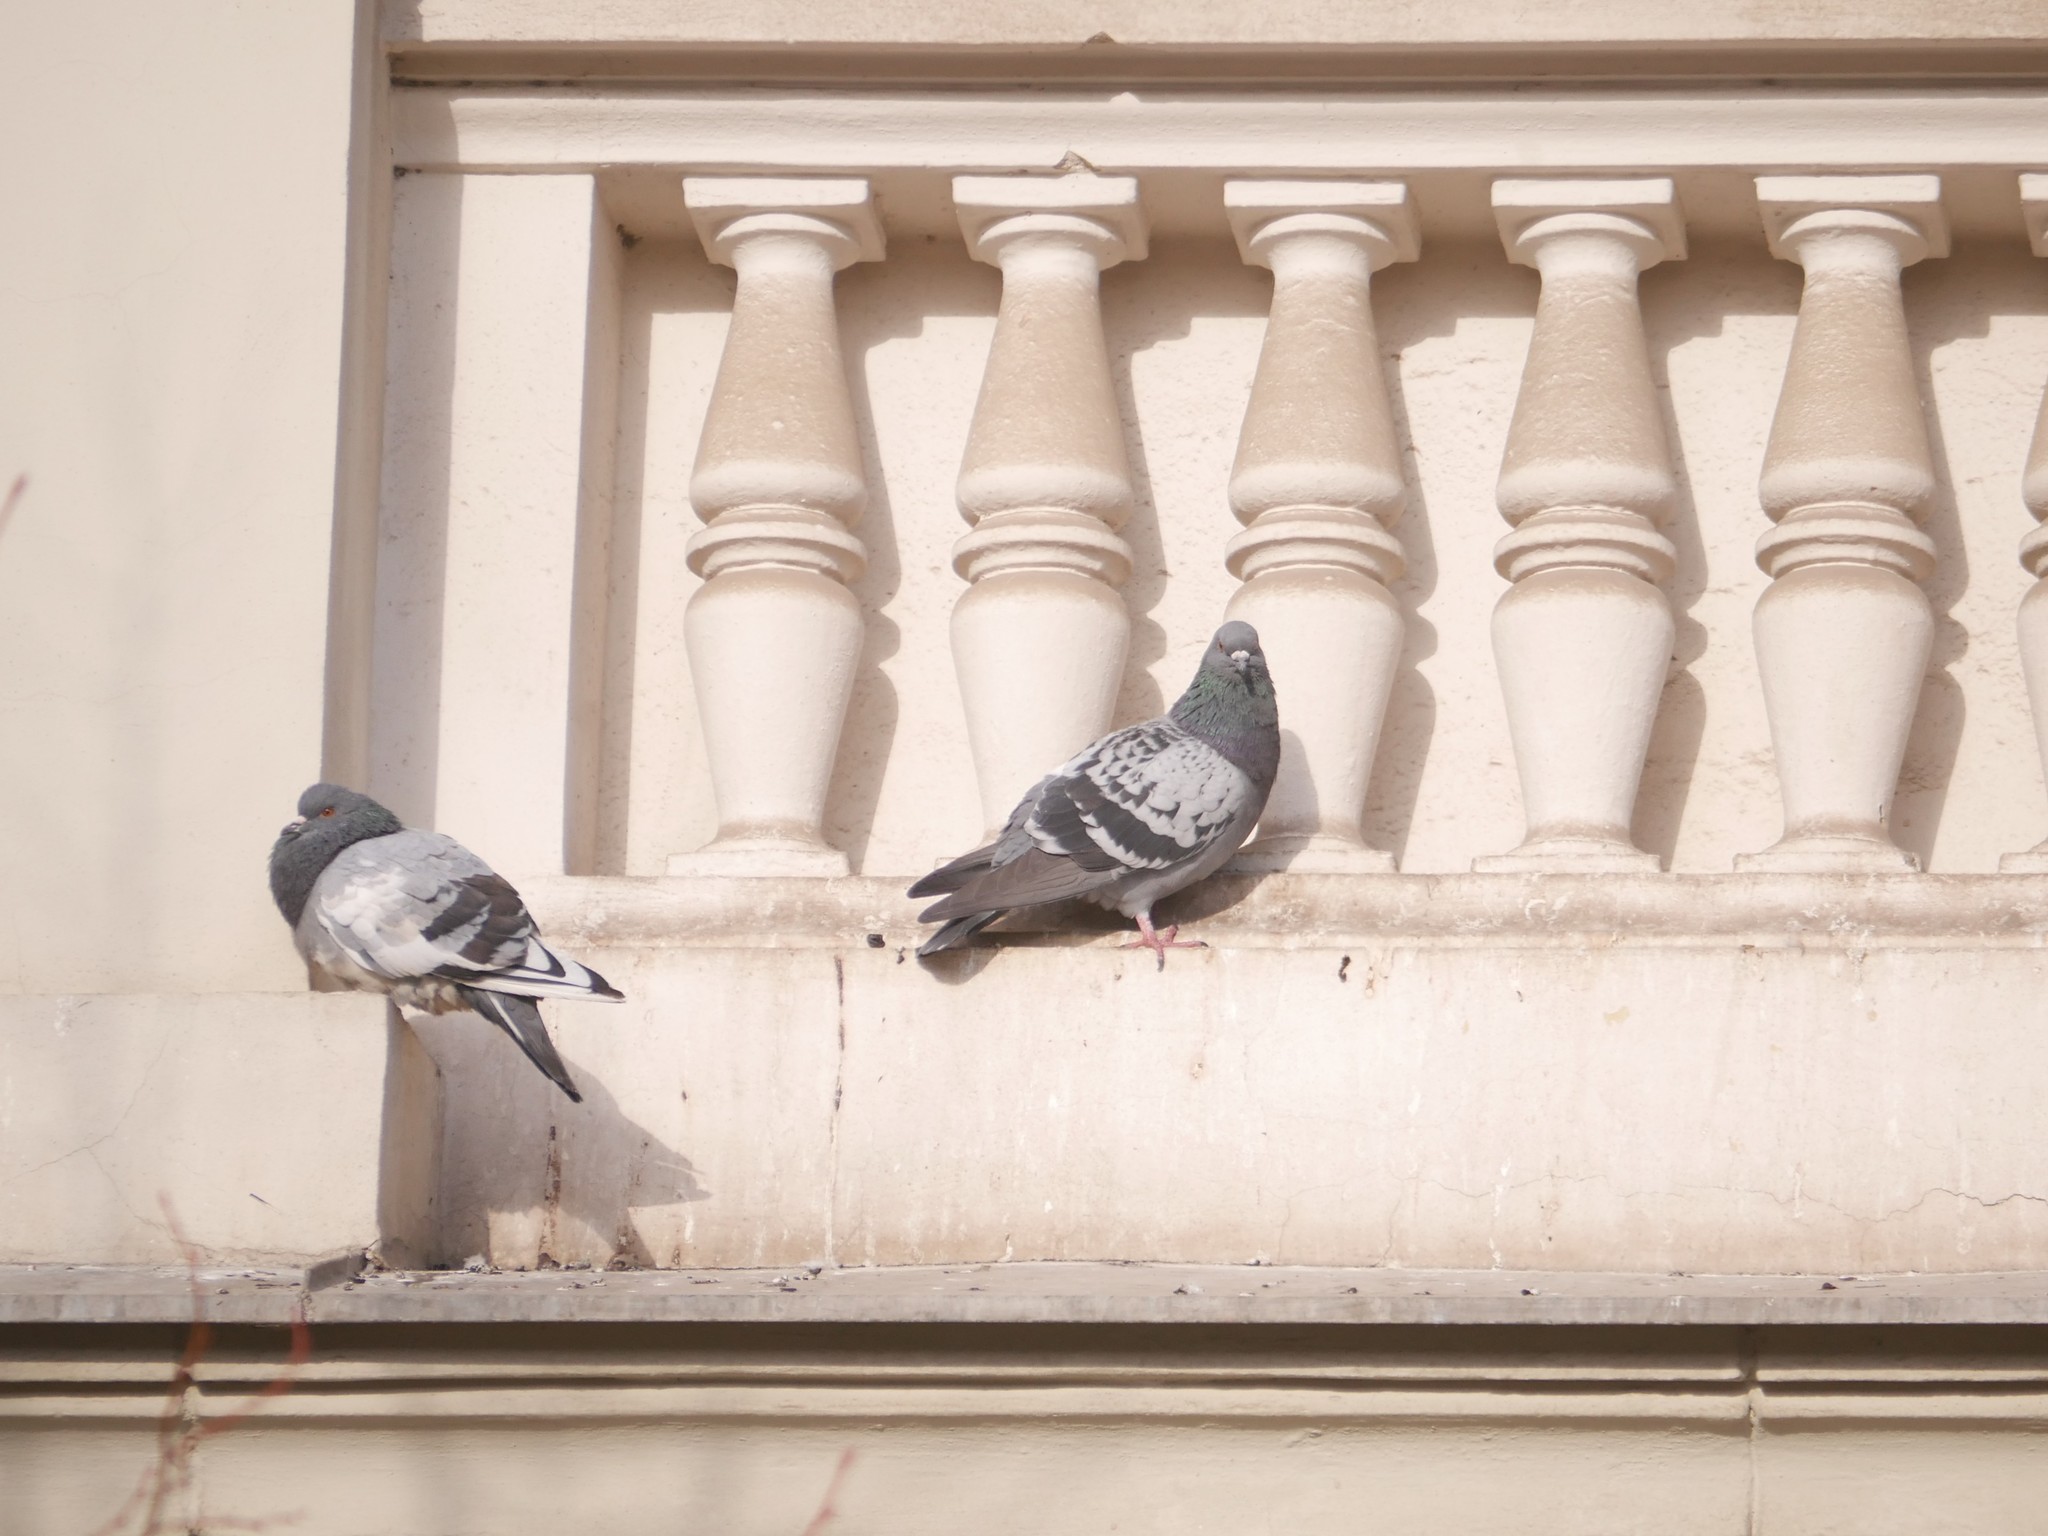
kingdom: Animalia
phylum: Chordata
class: Aves
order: Columbiformes
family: Columbidae
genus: Columba
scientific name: Columba livia
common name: Rock pigeon
